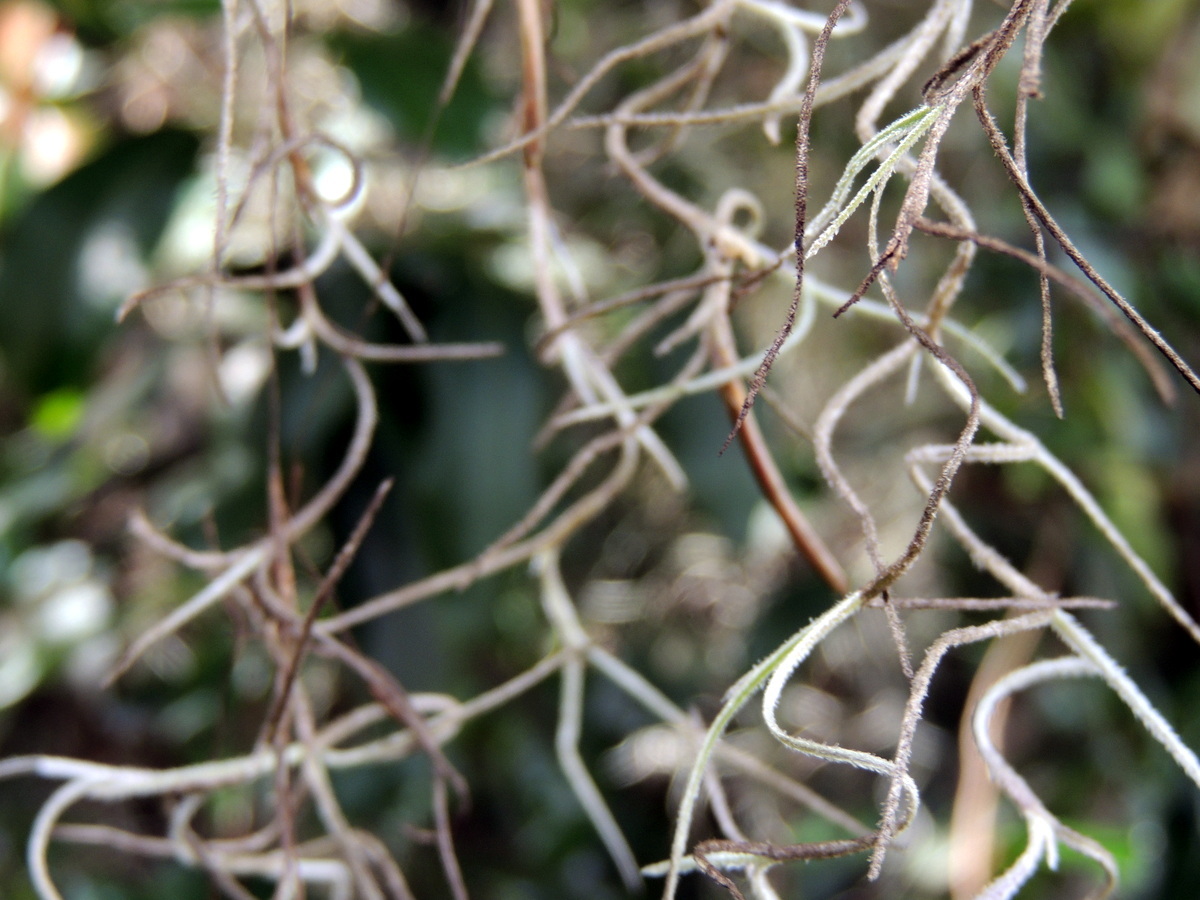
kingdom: Plantae
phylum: Tracheophyta
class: Liliopsida
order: Poales
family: Bromeliaceae
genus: Tillandsia
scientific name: Tillandsia usneoides
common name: Spanish moss
